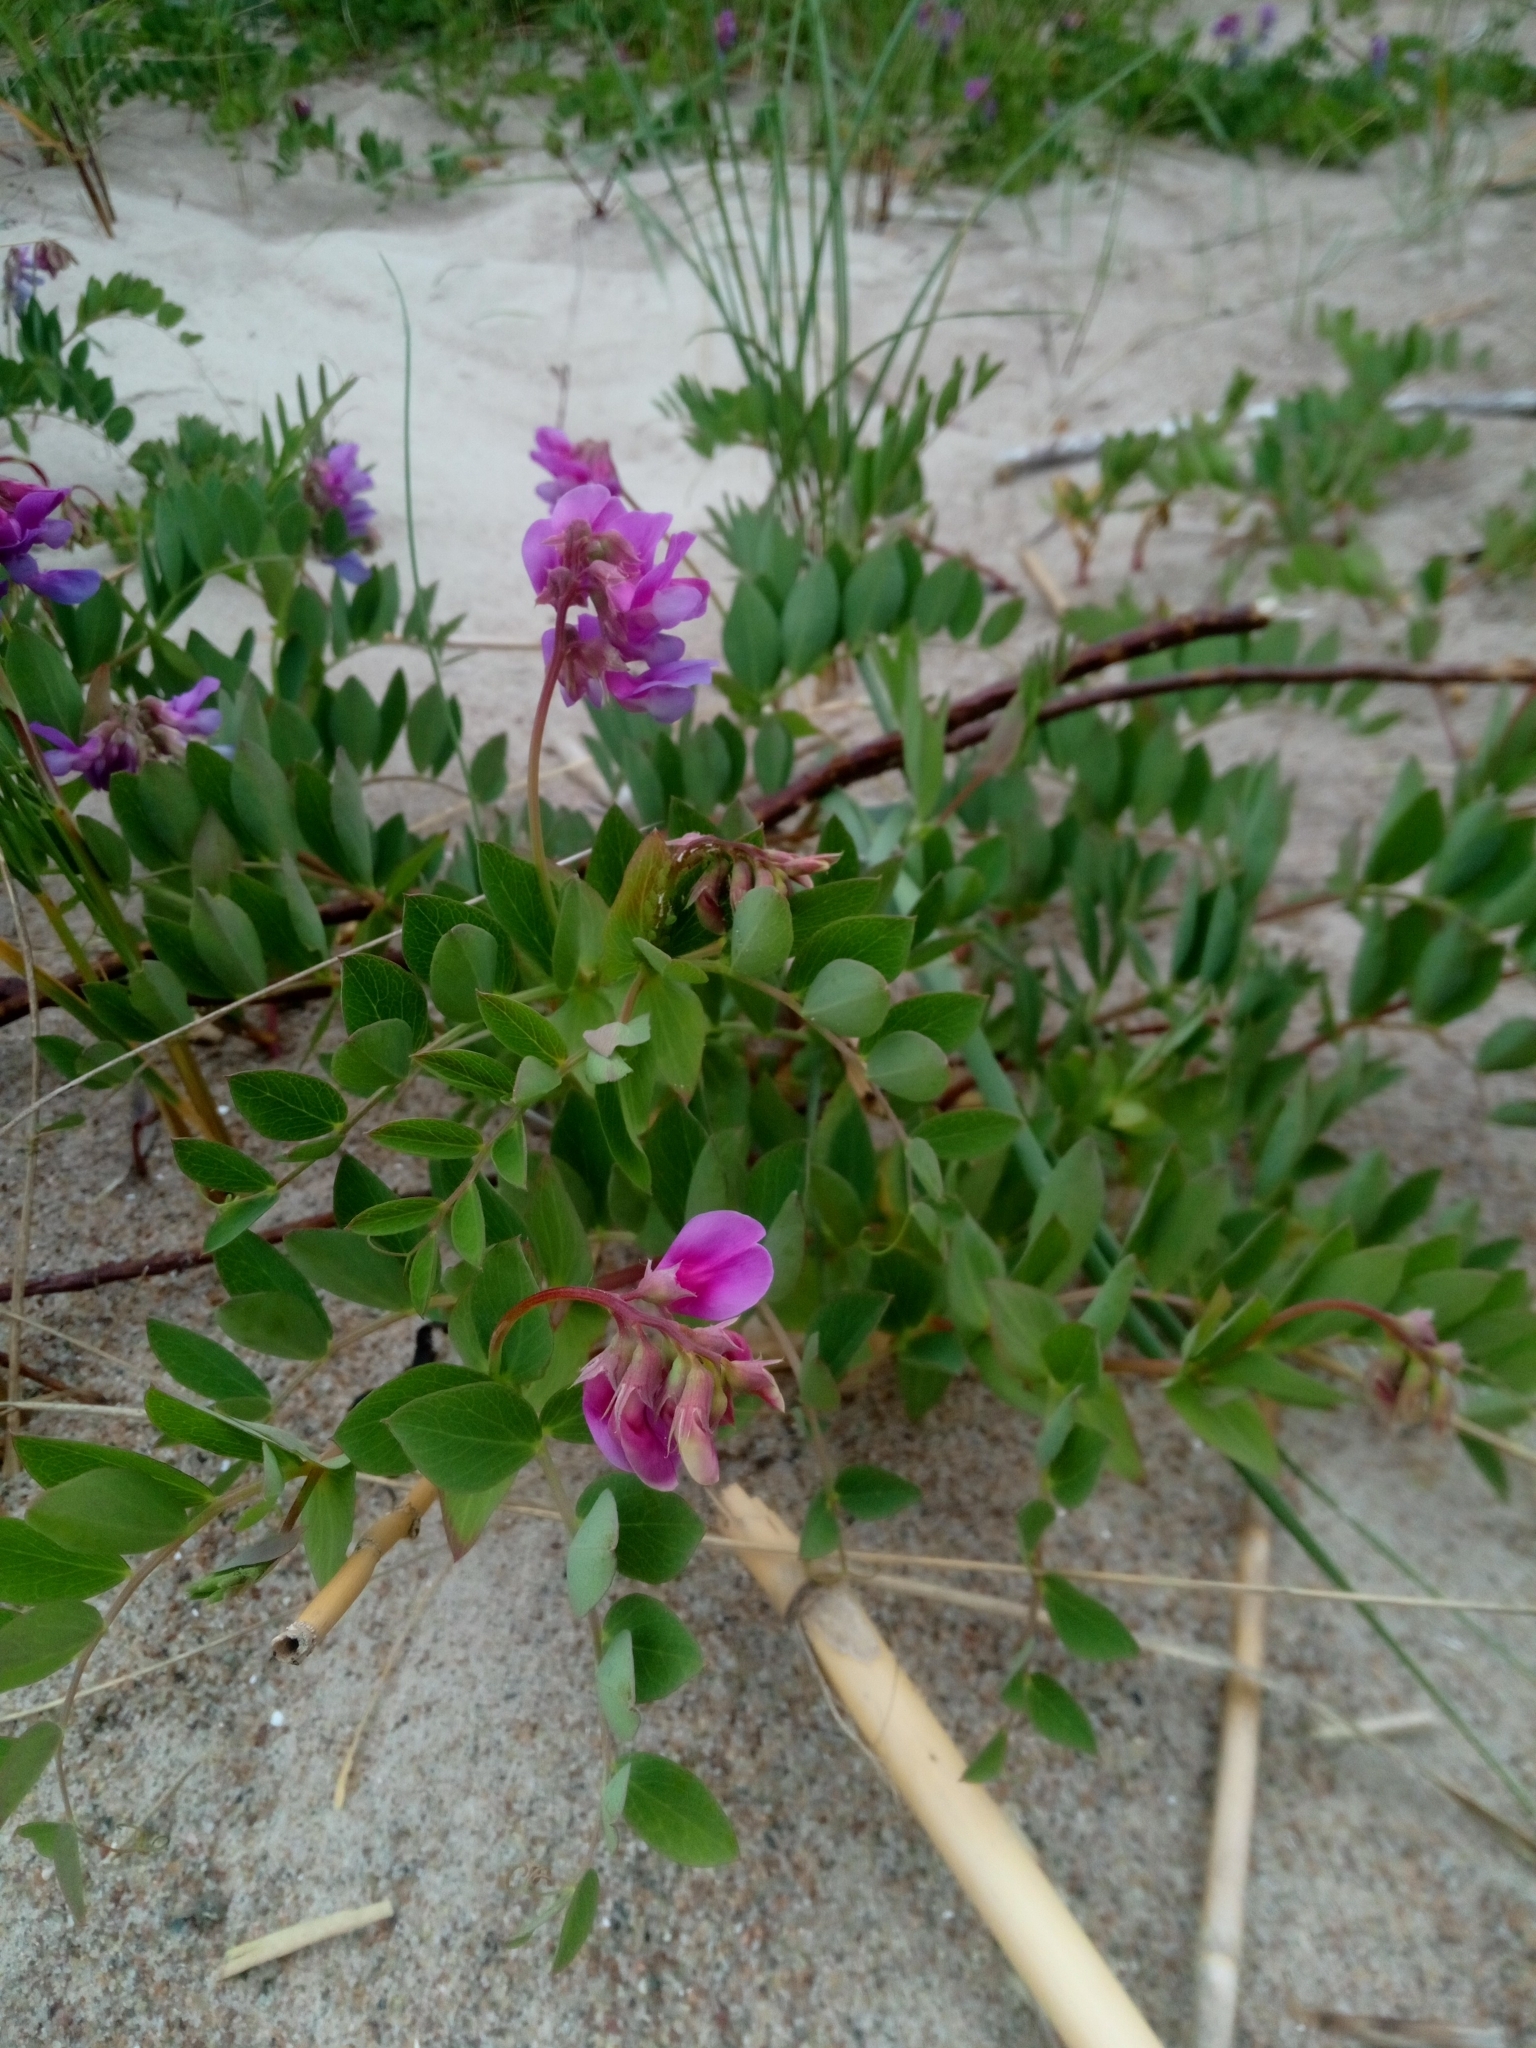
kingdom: Plantae
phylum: Tracheophyta
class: Magnoliopsida
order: Fabales
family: Fabaceae
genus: Lathyrus
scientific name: Lathyrus japonicus
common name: Sea pea
